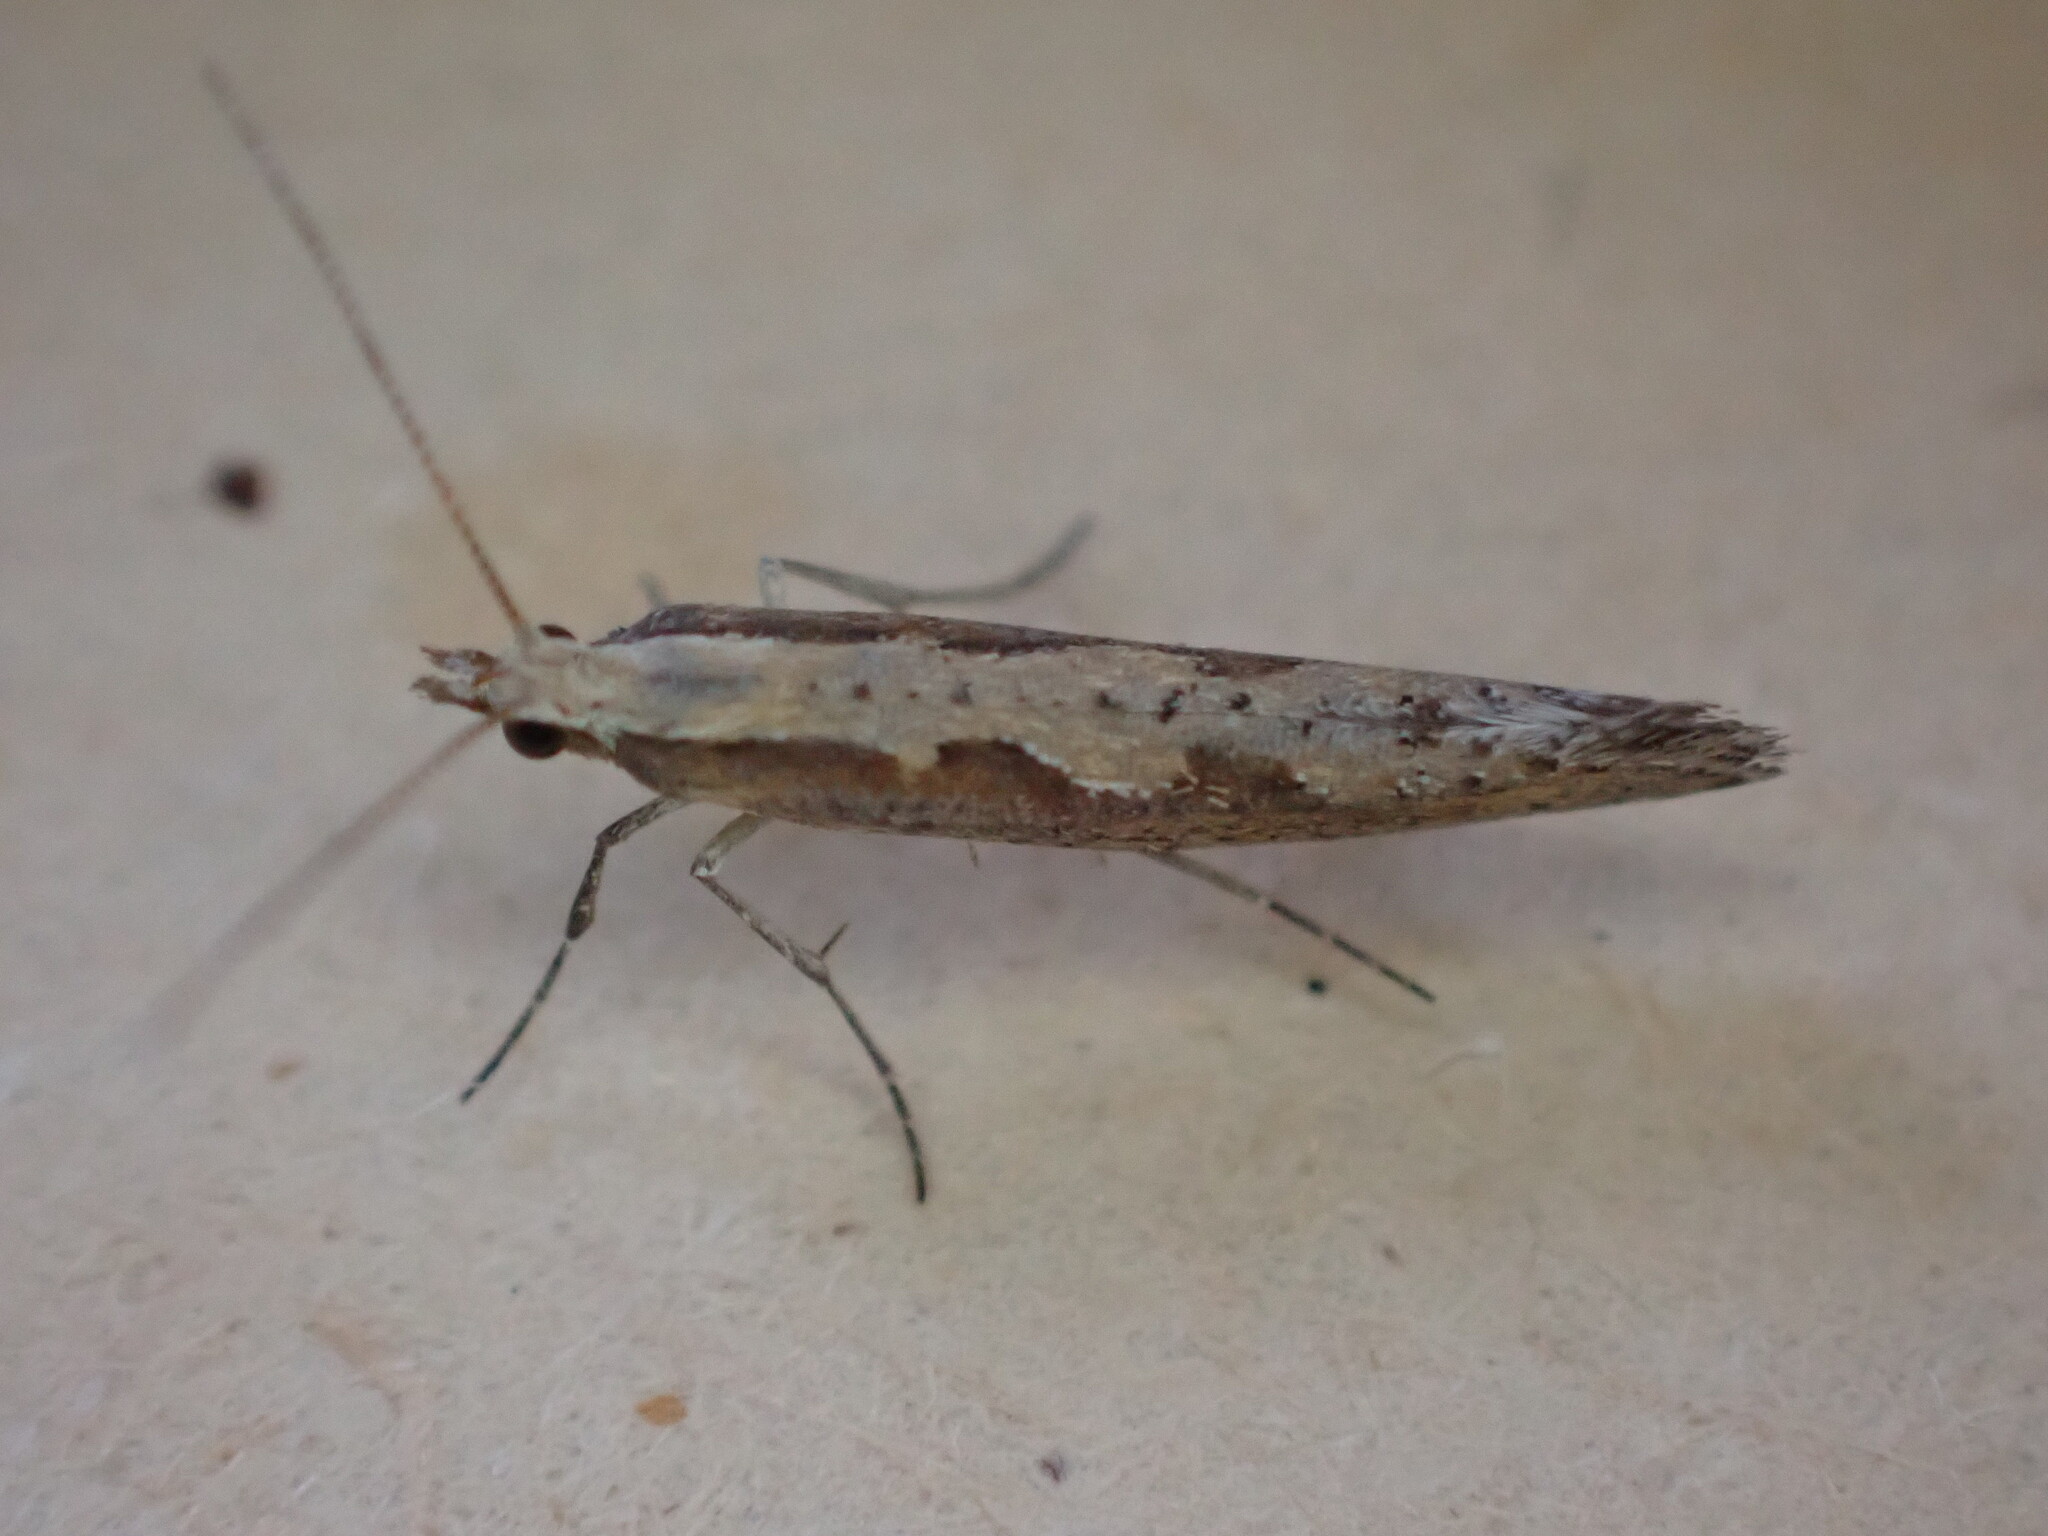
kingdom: Animalia
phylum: Arthropoda
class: Insecta
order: Lepidoptera
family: Plutellidae
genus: Plutella
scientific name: Plutella xylostella
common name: Diamond-back moth
